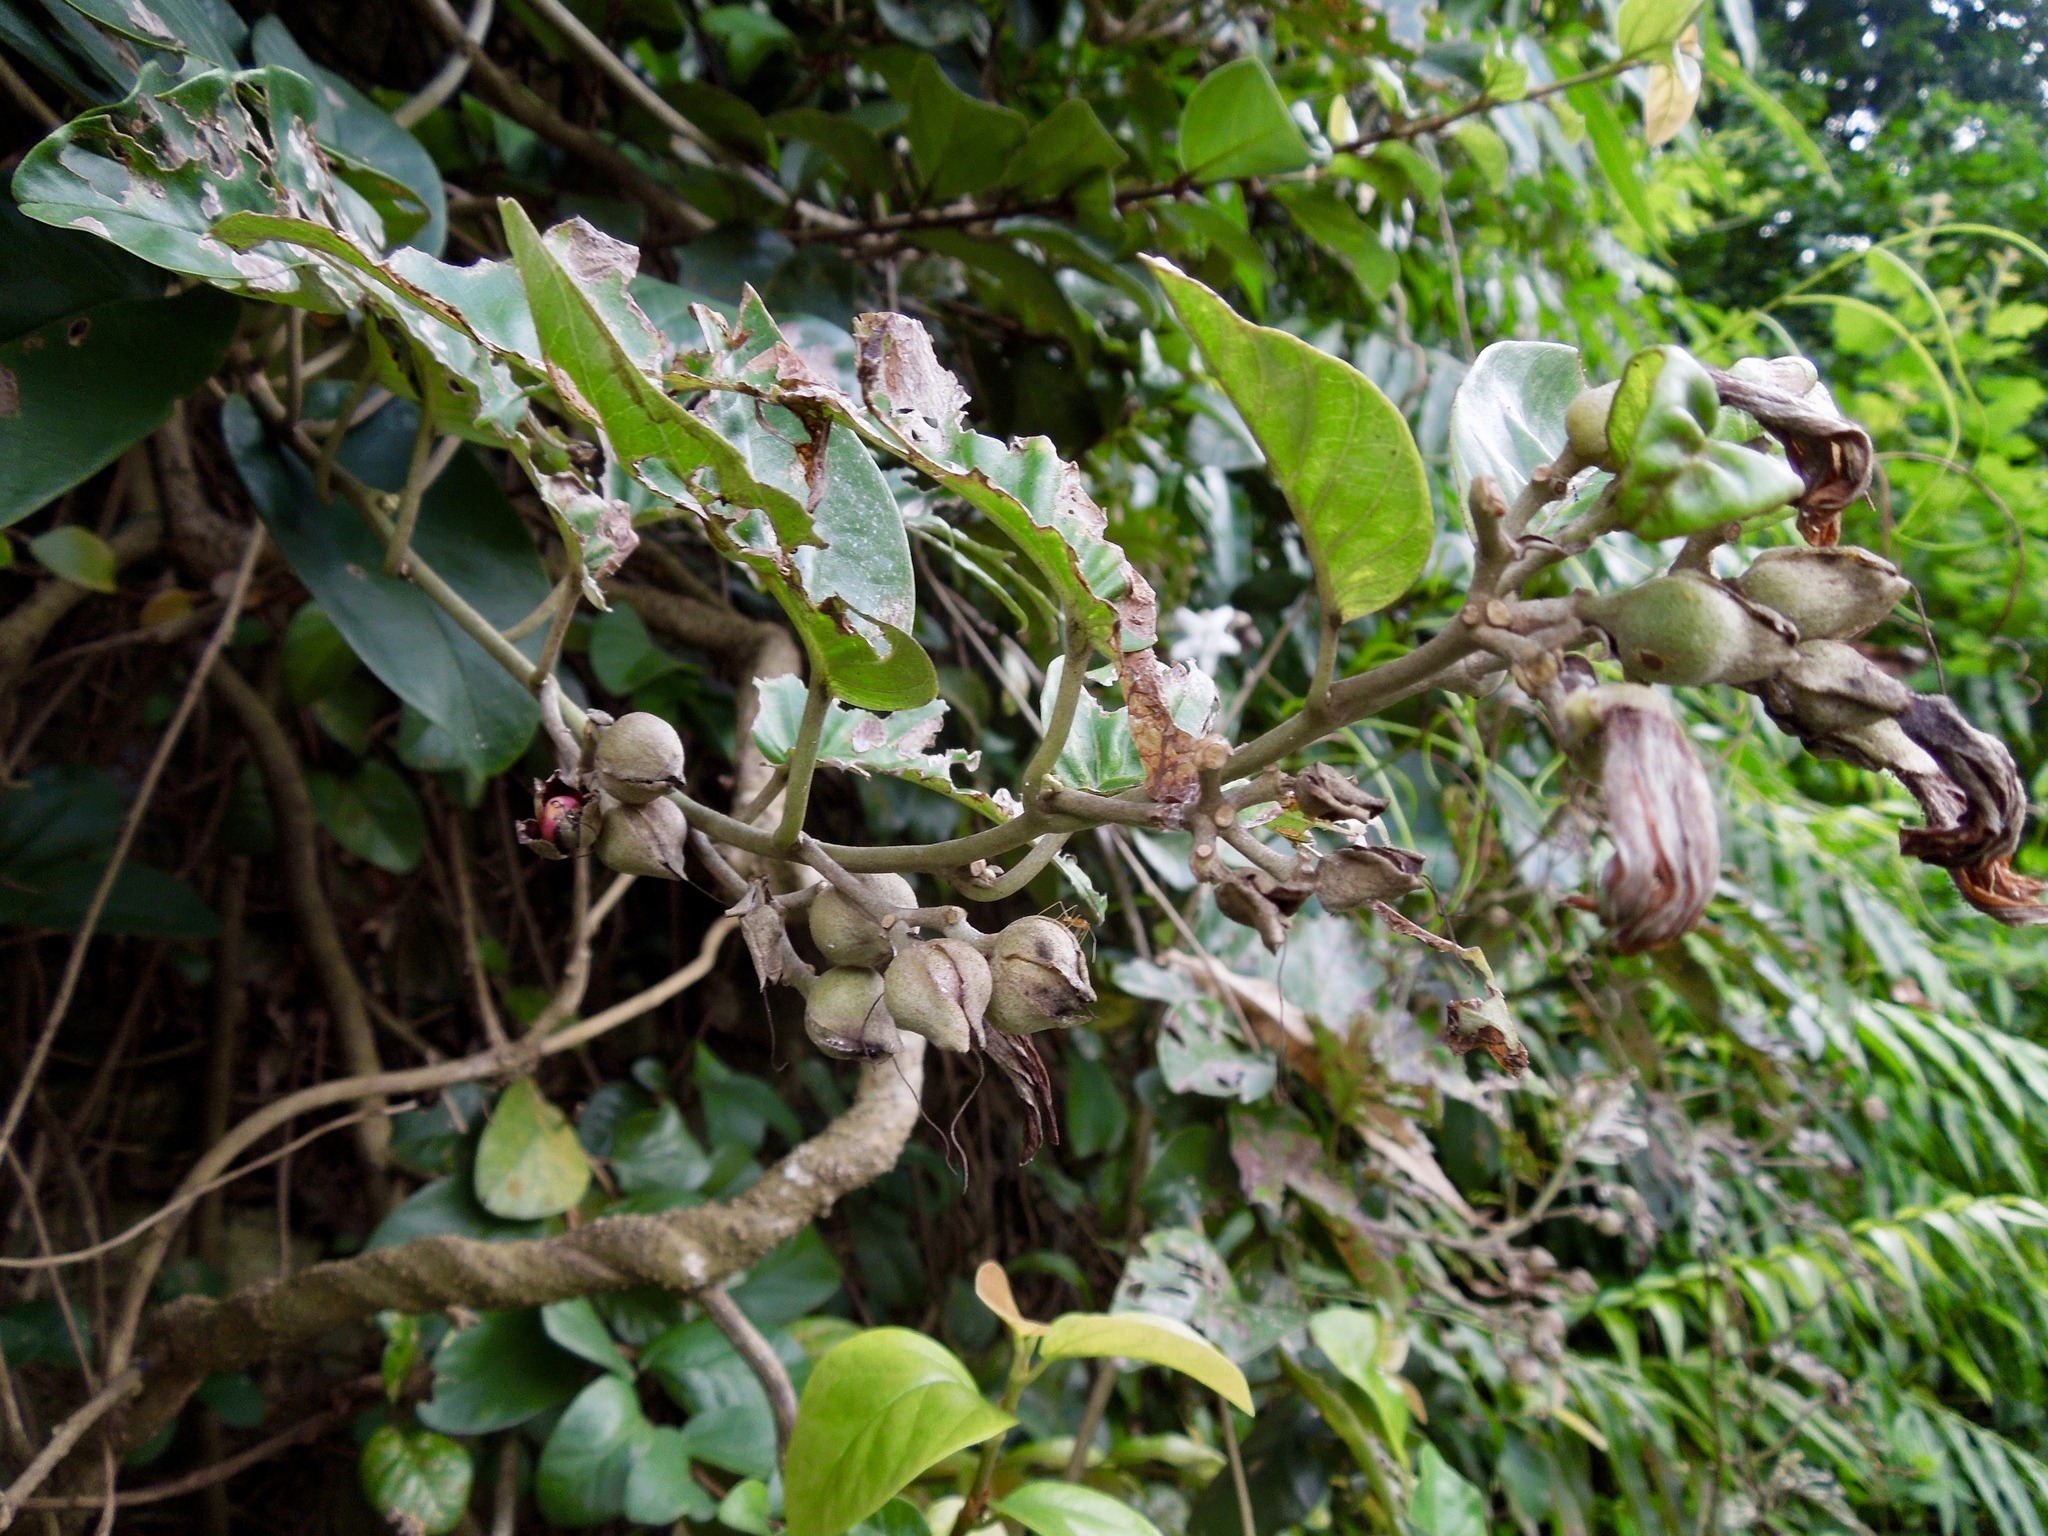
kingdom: Plantae
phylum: Tracheophyta
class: Magnoliopsida
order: Solanales
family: Convolvulaceae
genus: Argyreia
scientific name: Argyreia obtusifolia
